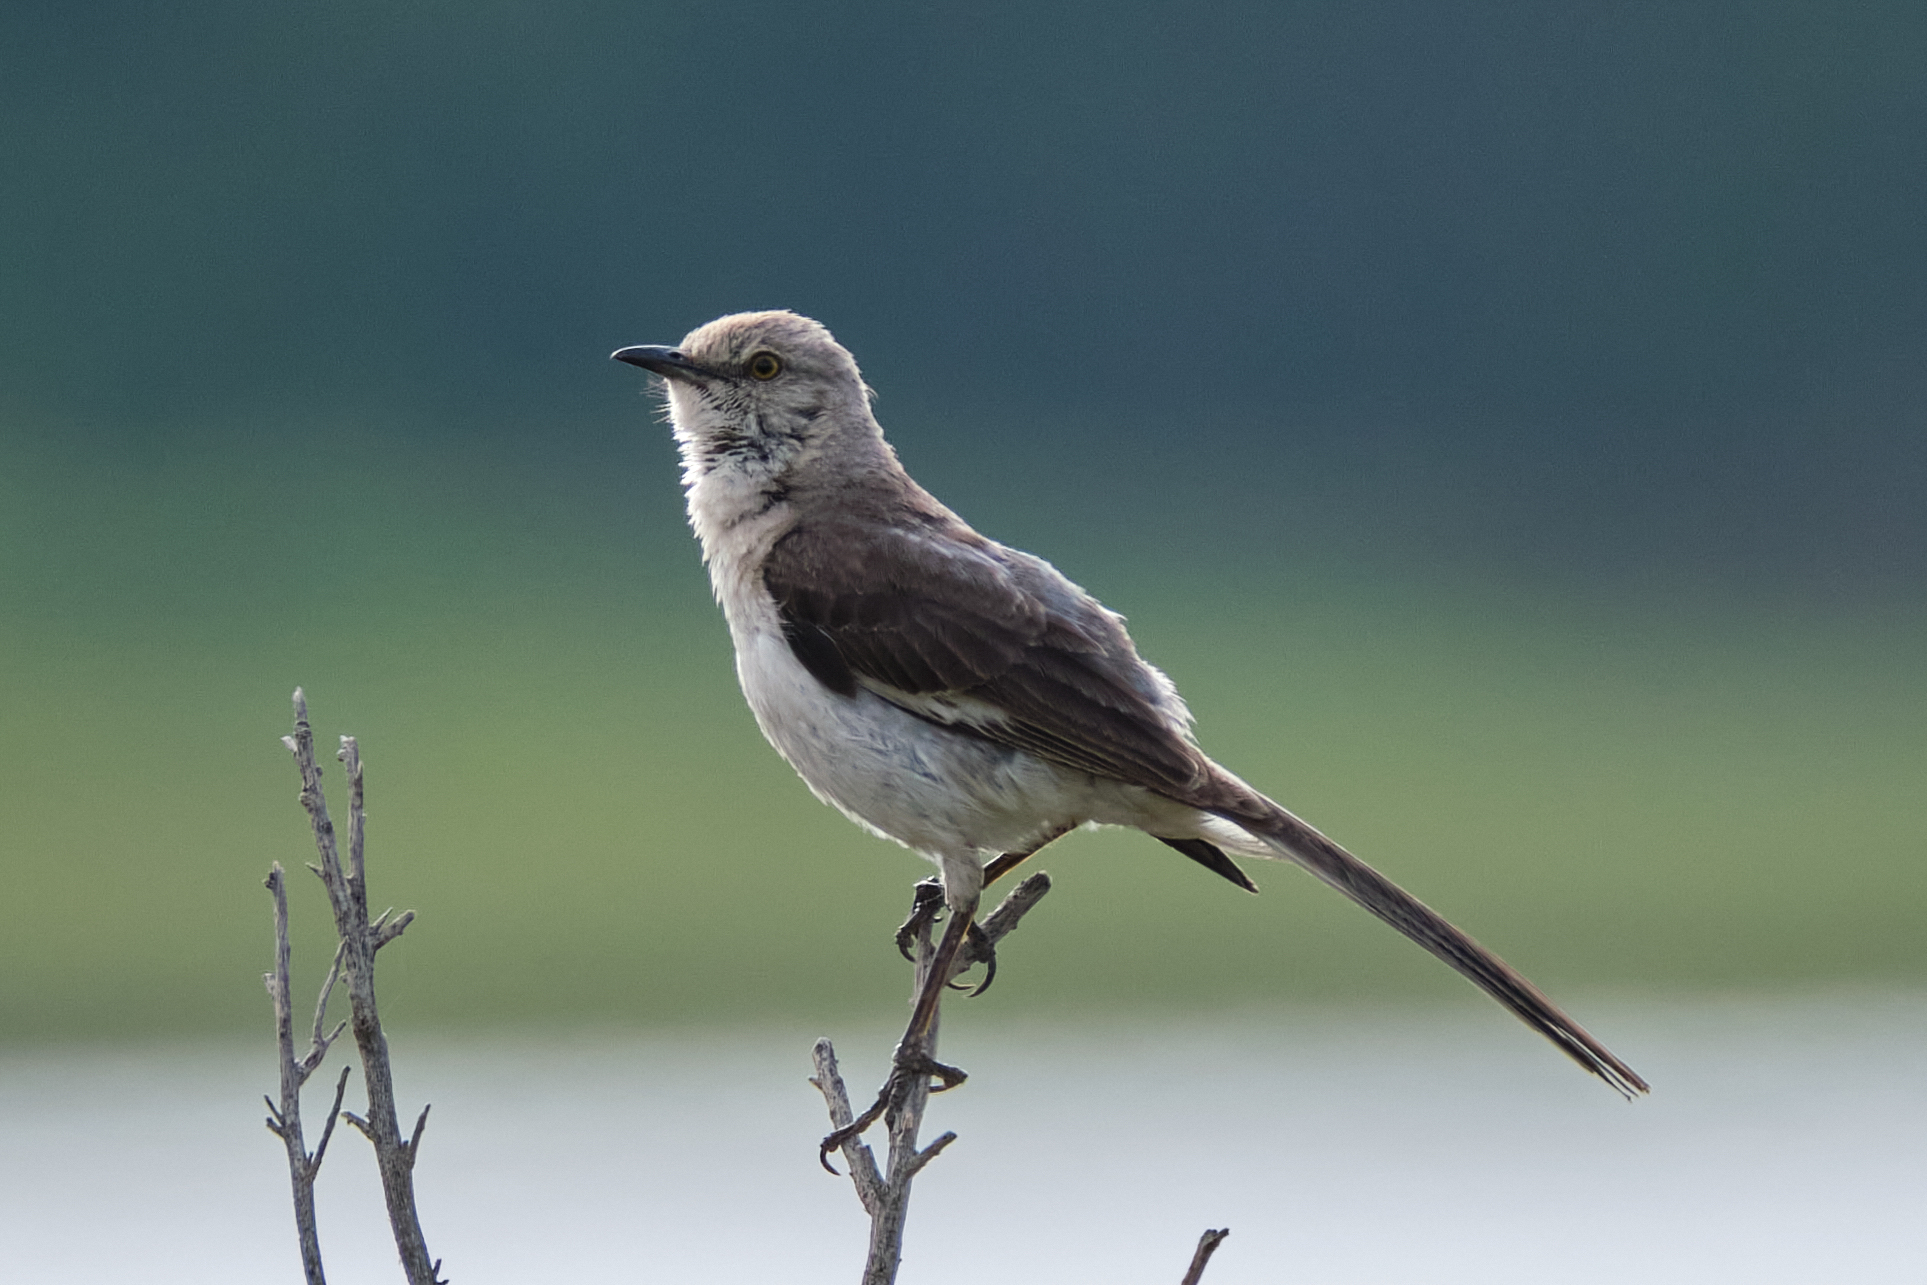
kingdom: Animalia
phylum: Chordata
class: Aves
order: Passeriformes
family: Mimidae
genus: Mimus
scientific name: Mimus polyglottos
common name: Northern mockingbird
